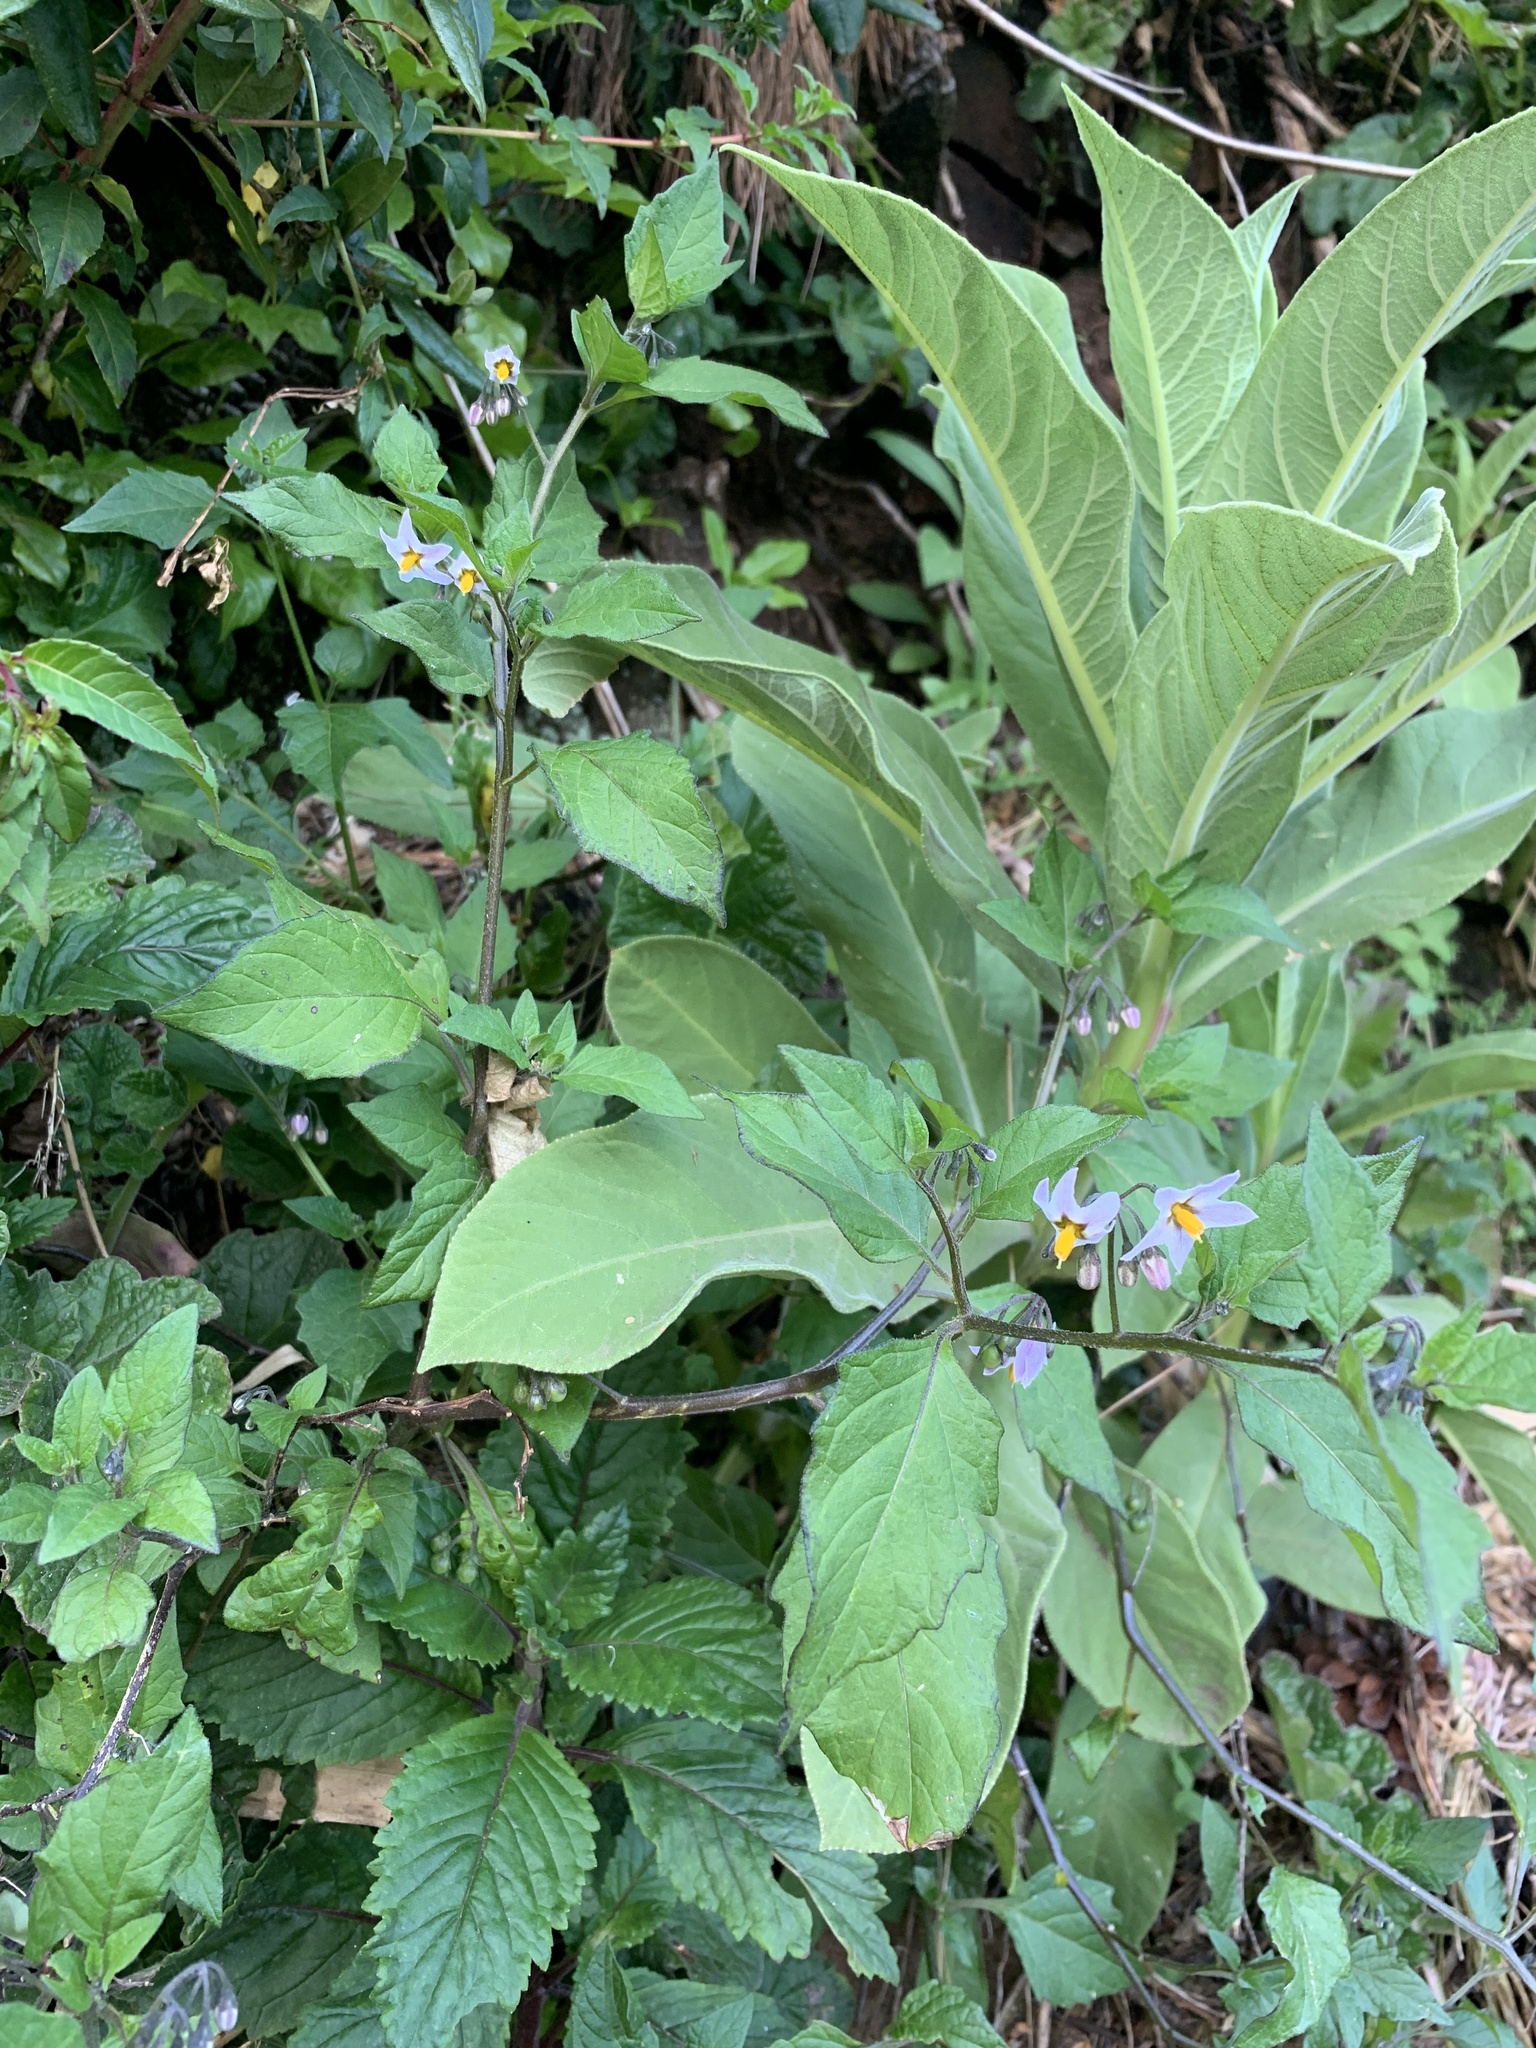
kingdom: Plantae
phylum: Tracheophyta
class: Magnoliopsida
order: Solanales
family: Solanaceae
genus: Solanum
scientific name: Solanum furcatum
